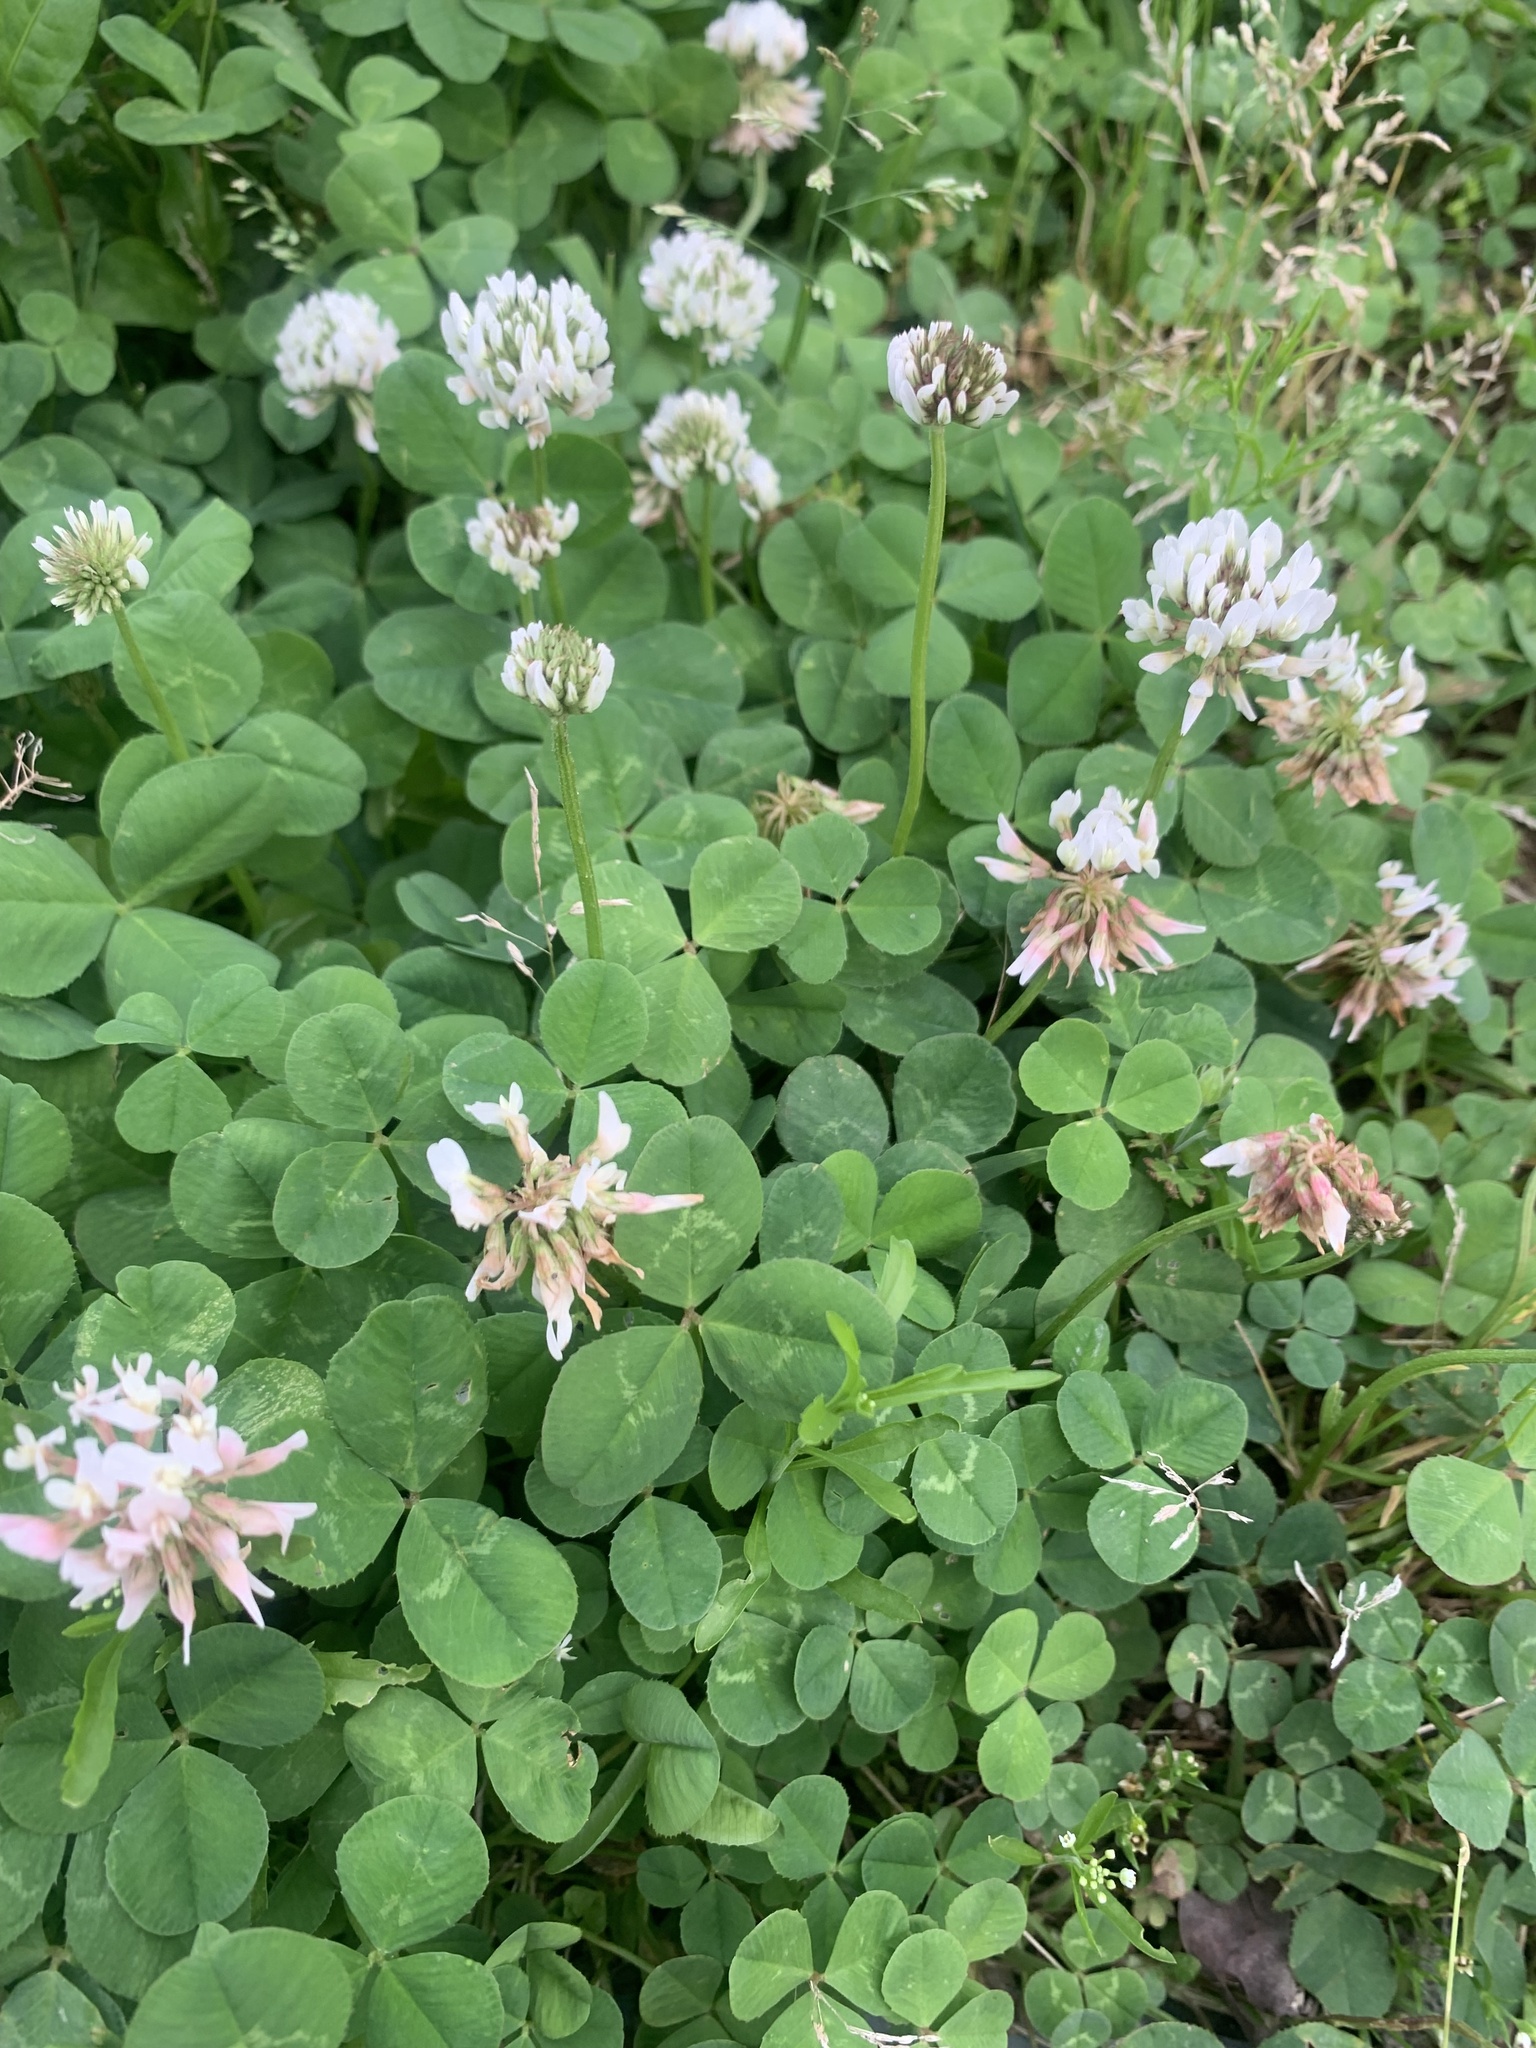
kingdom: Plantae
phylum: Tracheophyta
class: Magnoliopsida
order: Fabales
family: Fabaceae
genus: Trifolium
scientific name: Trifolium repens
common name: White clover
